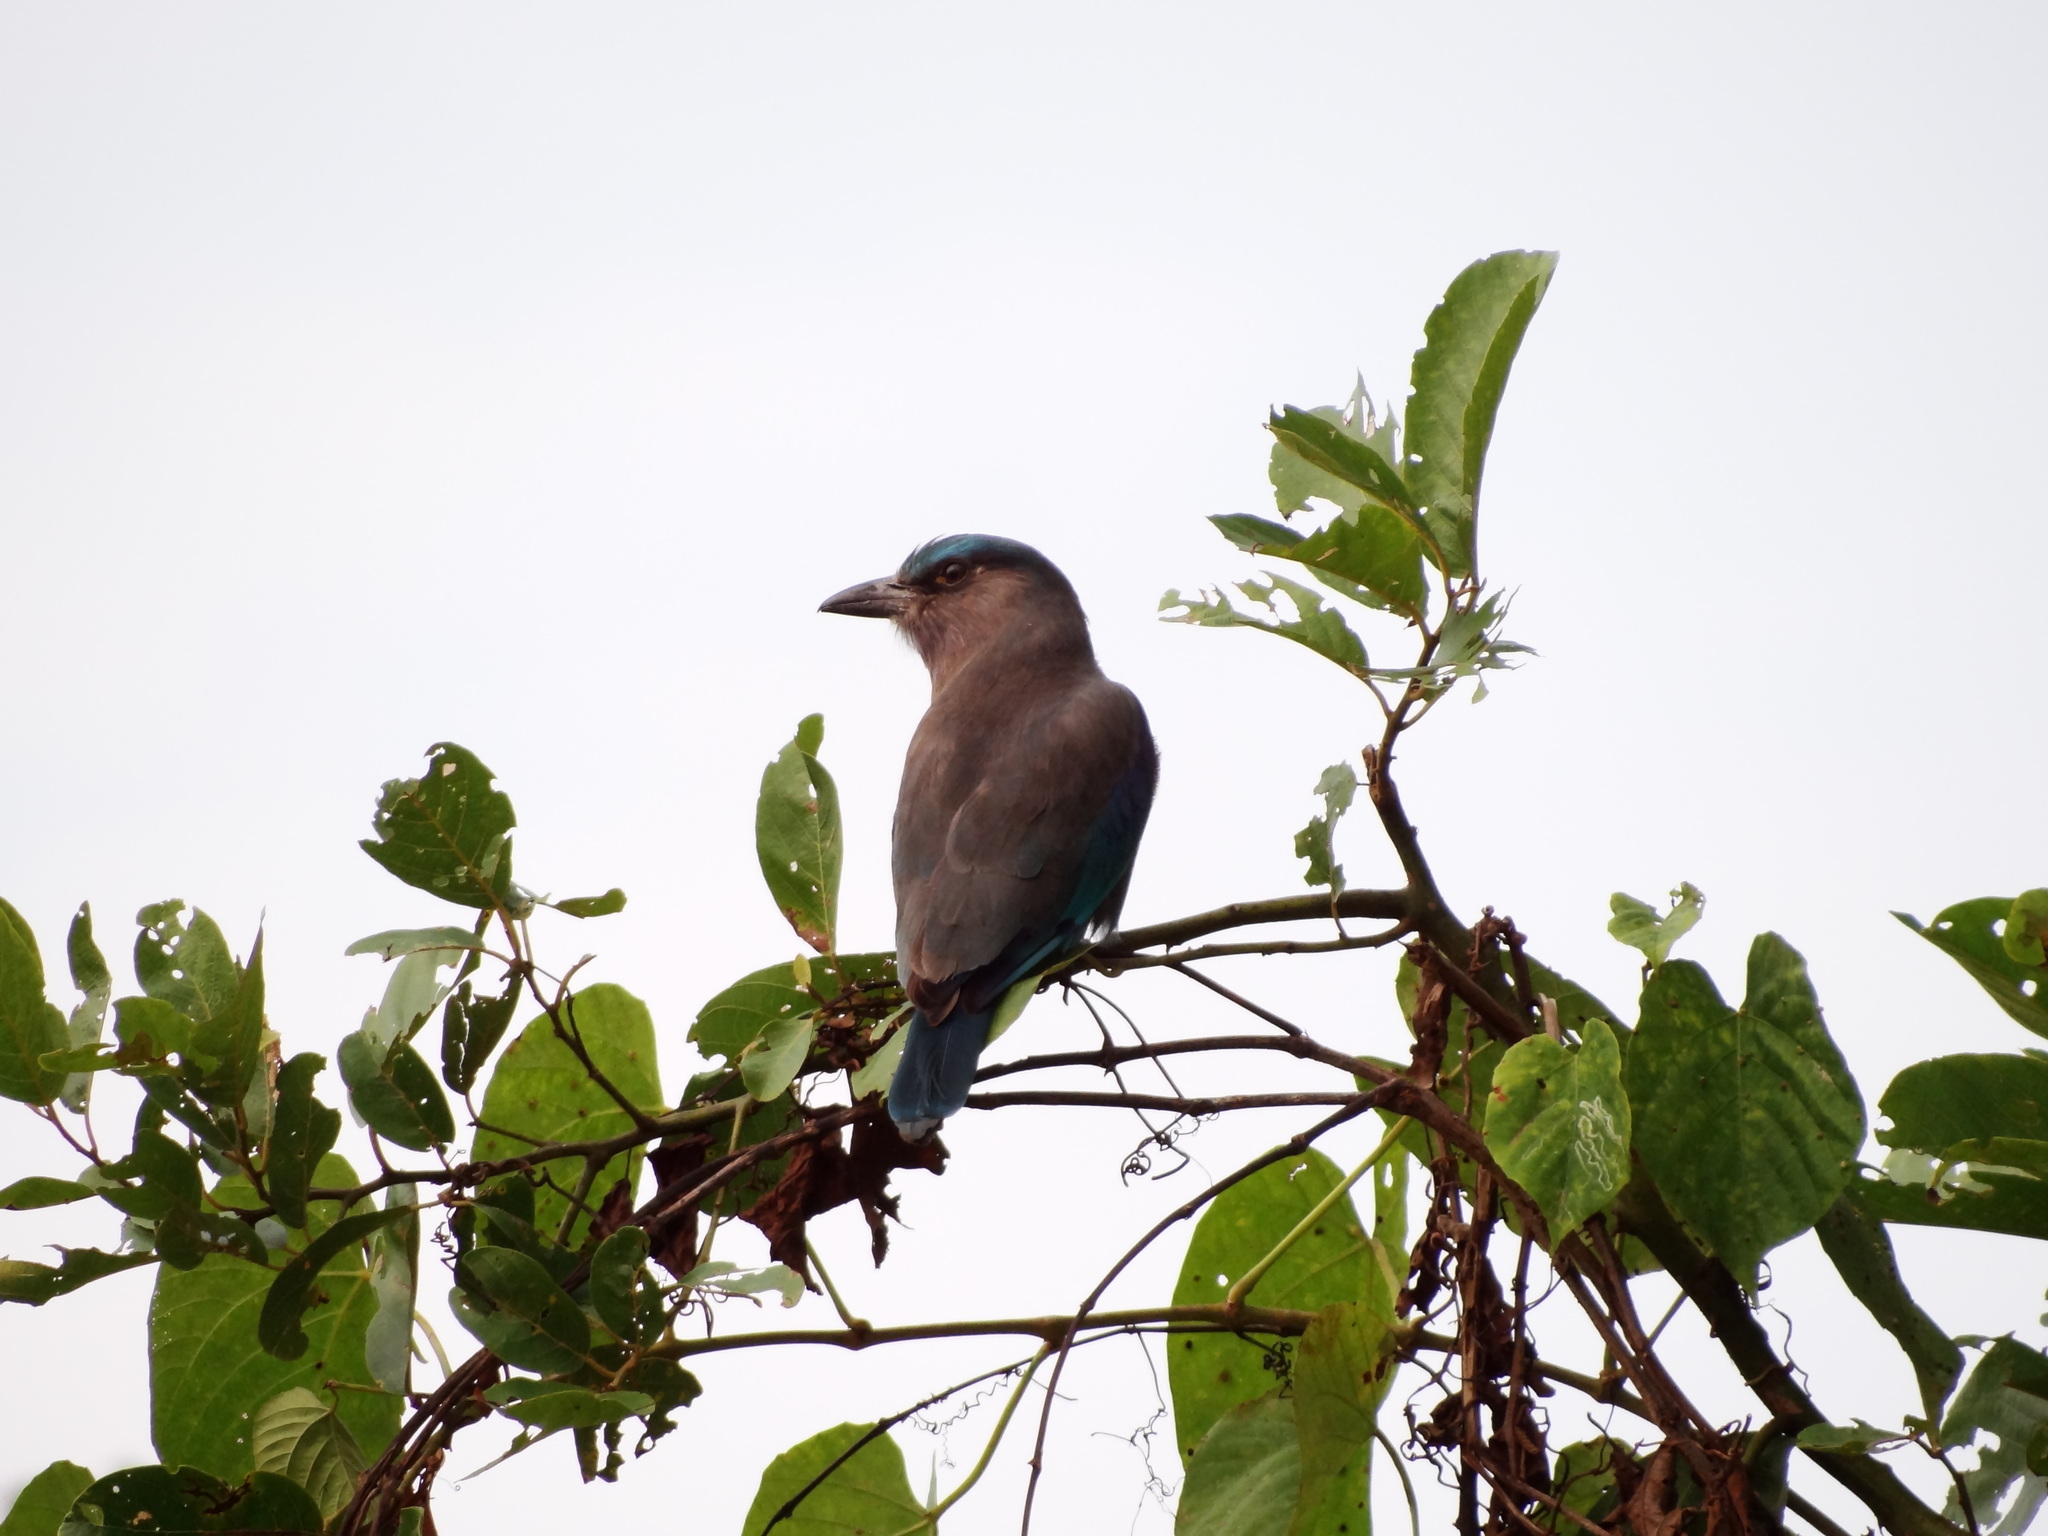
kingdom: Animalia
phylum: Chordata
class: Aves
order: Coraciiformes
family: Coraciidae
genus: Coracias
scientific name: Coracias affinis
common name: Indochinese roller
